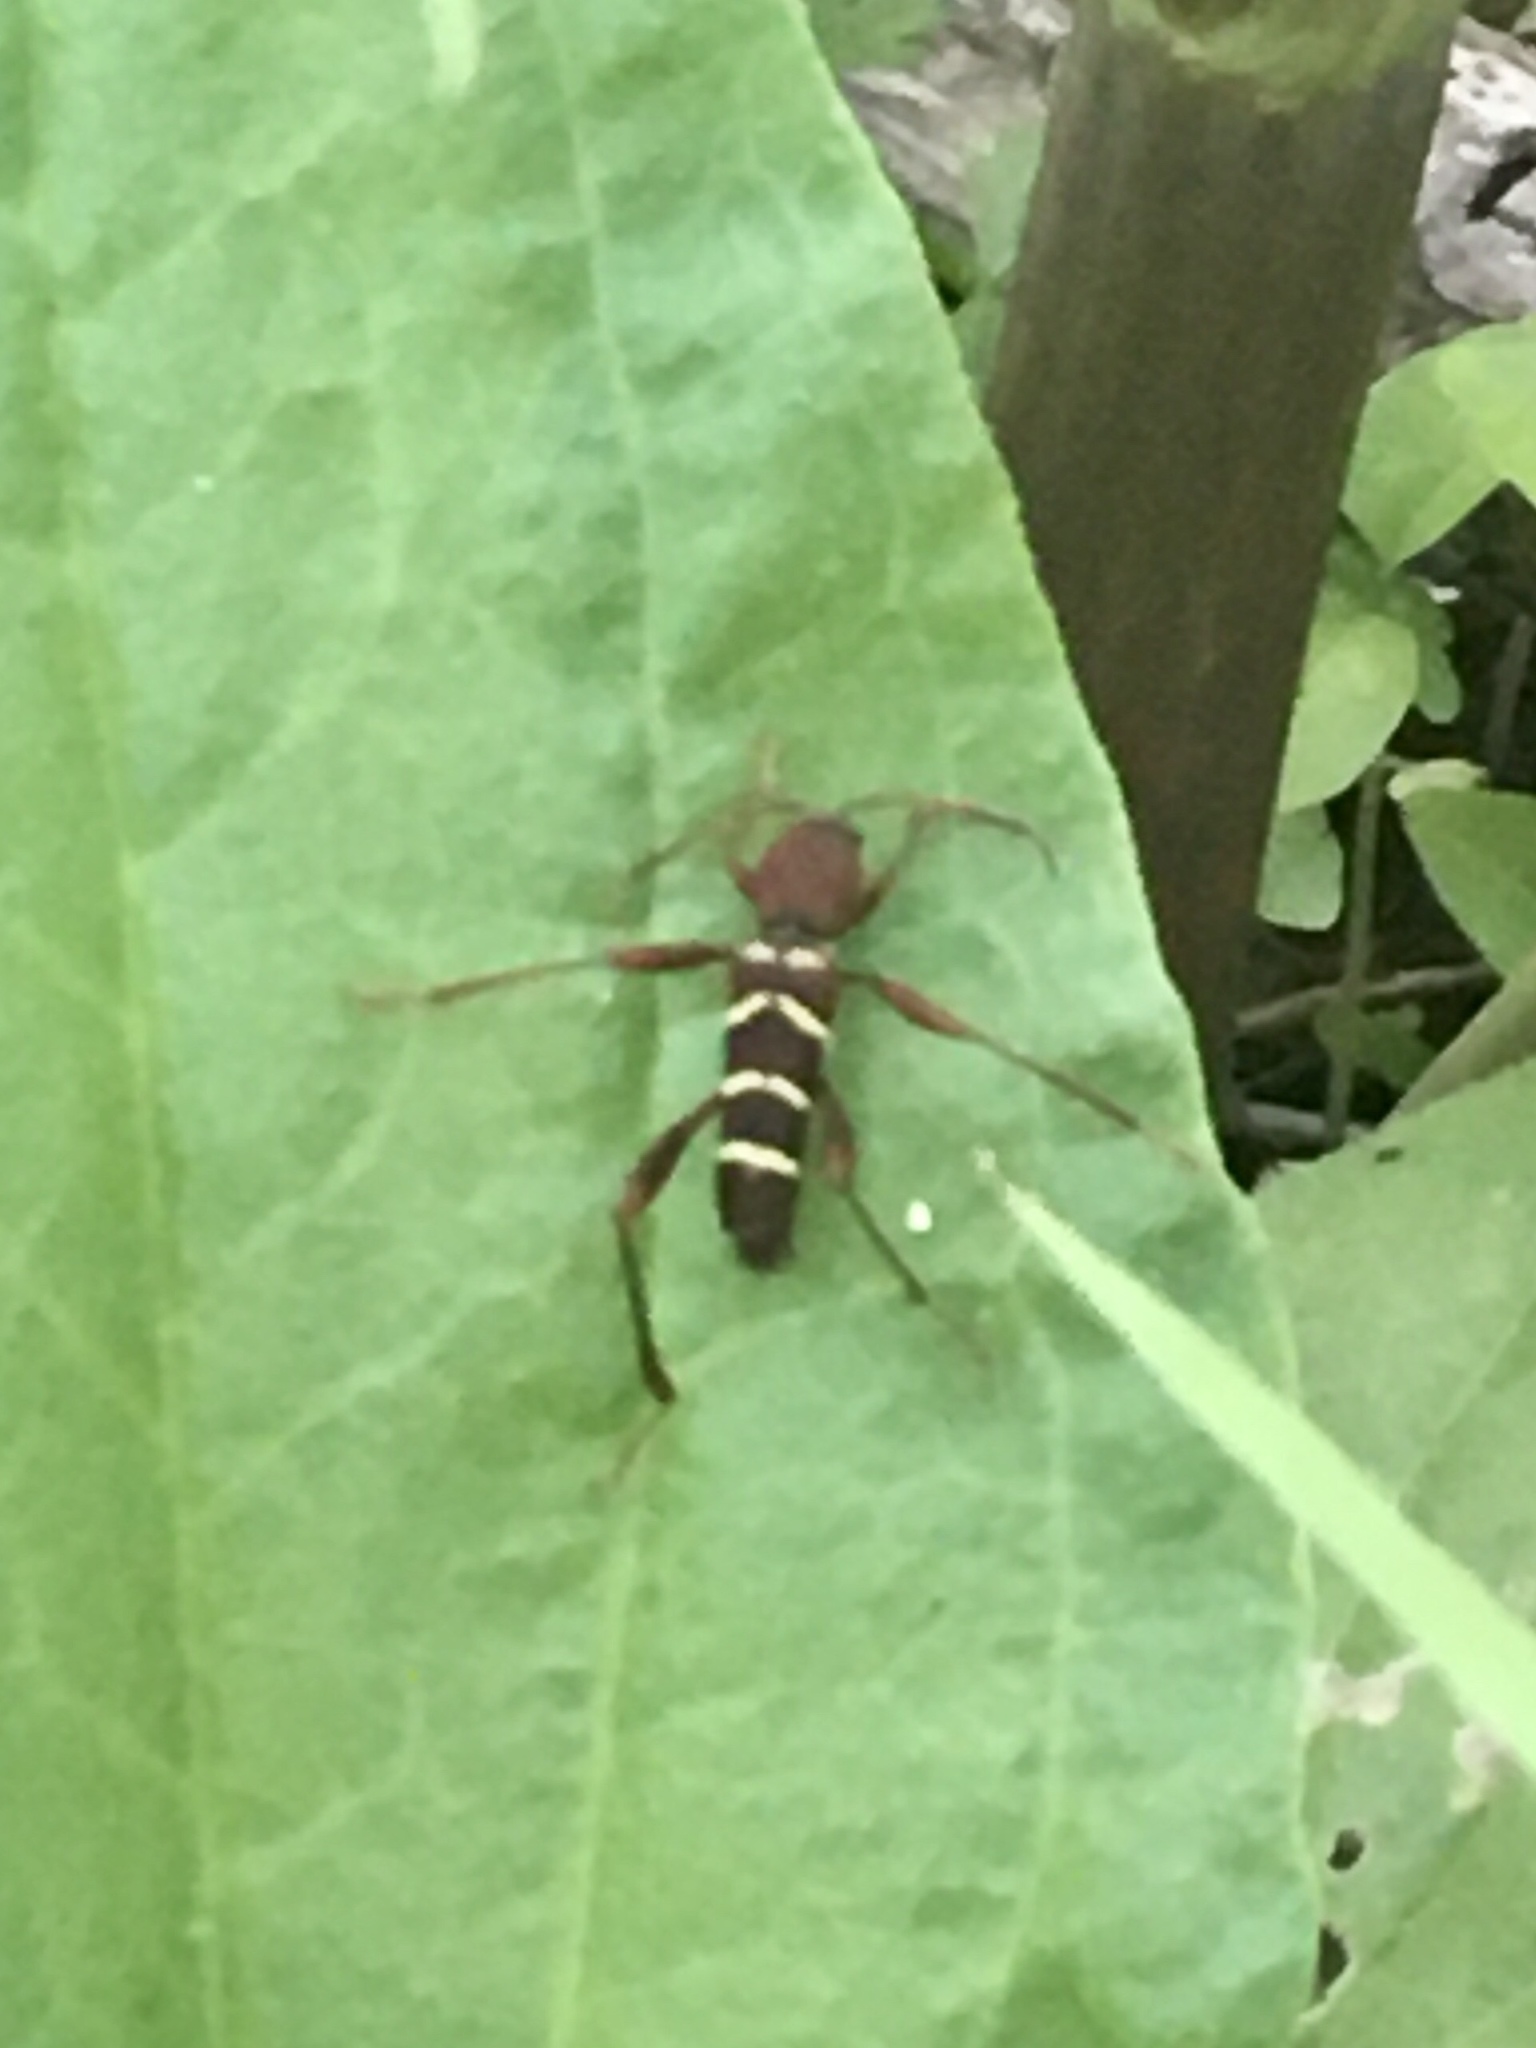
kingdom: Animalia
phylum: Arthropoda
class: Insecta
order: Coleoptera
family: Cerambycidae
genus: Neoclytus
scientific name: Neoclytus acuminatus
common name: Read-headed ash borer
